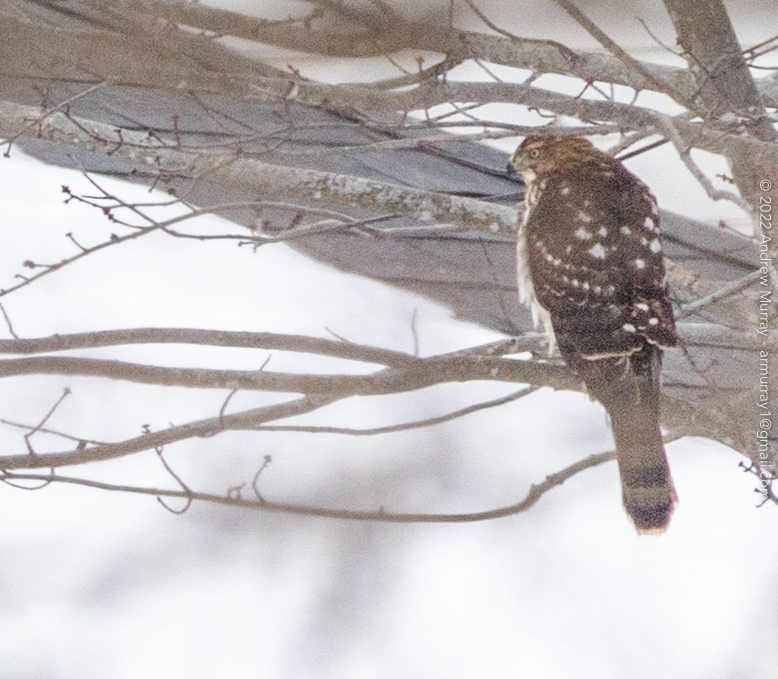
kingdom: Animalia
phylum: Chordata
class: Aves
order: Accipitriformes
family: Accipitridae
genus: Accipiter
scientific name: Accipiter cooperii
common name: Cooper's hawk
